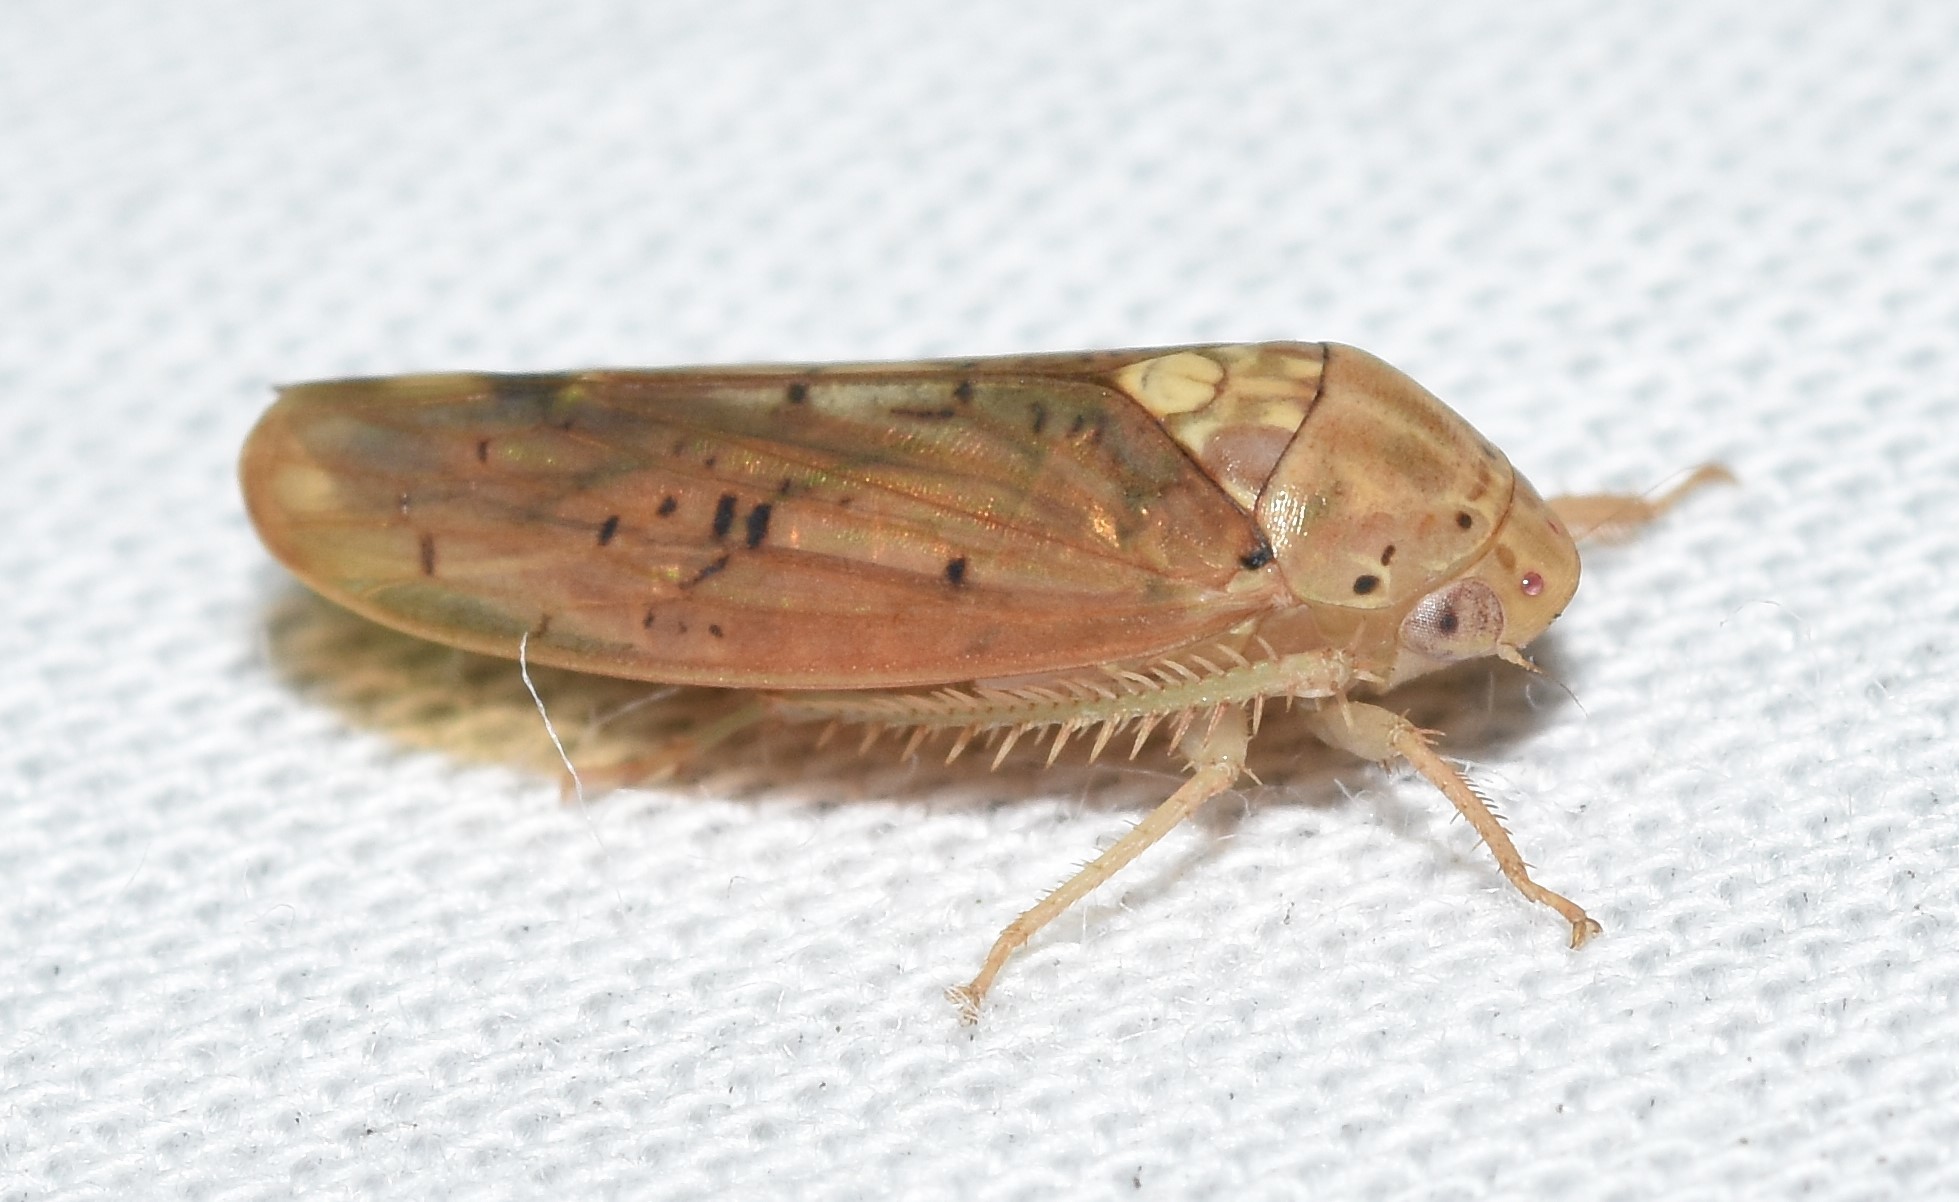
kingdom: Animalia
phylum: Arthropoda
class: Insecta
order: Hemiptera
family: Cicadellidae
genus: Ponana
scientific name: Ponana quadralaba
